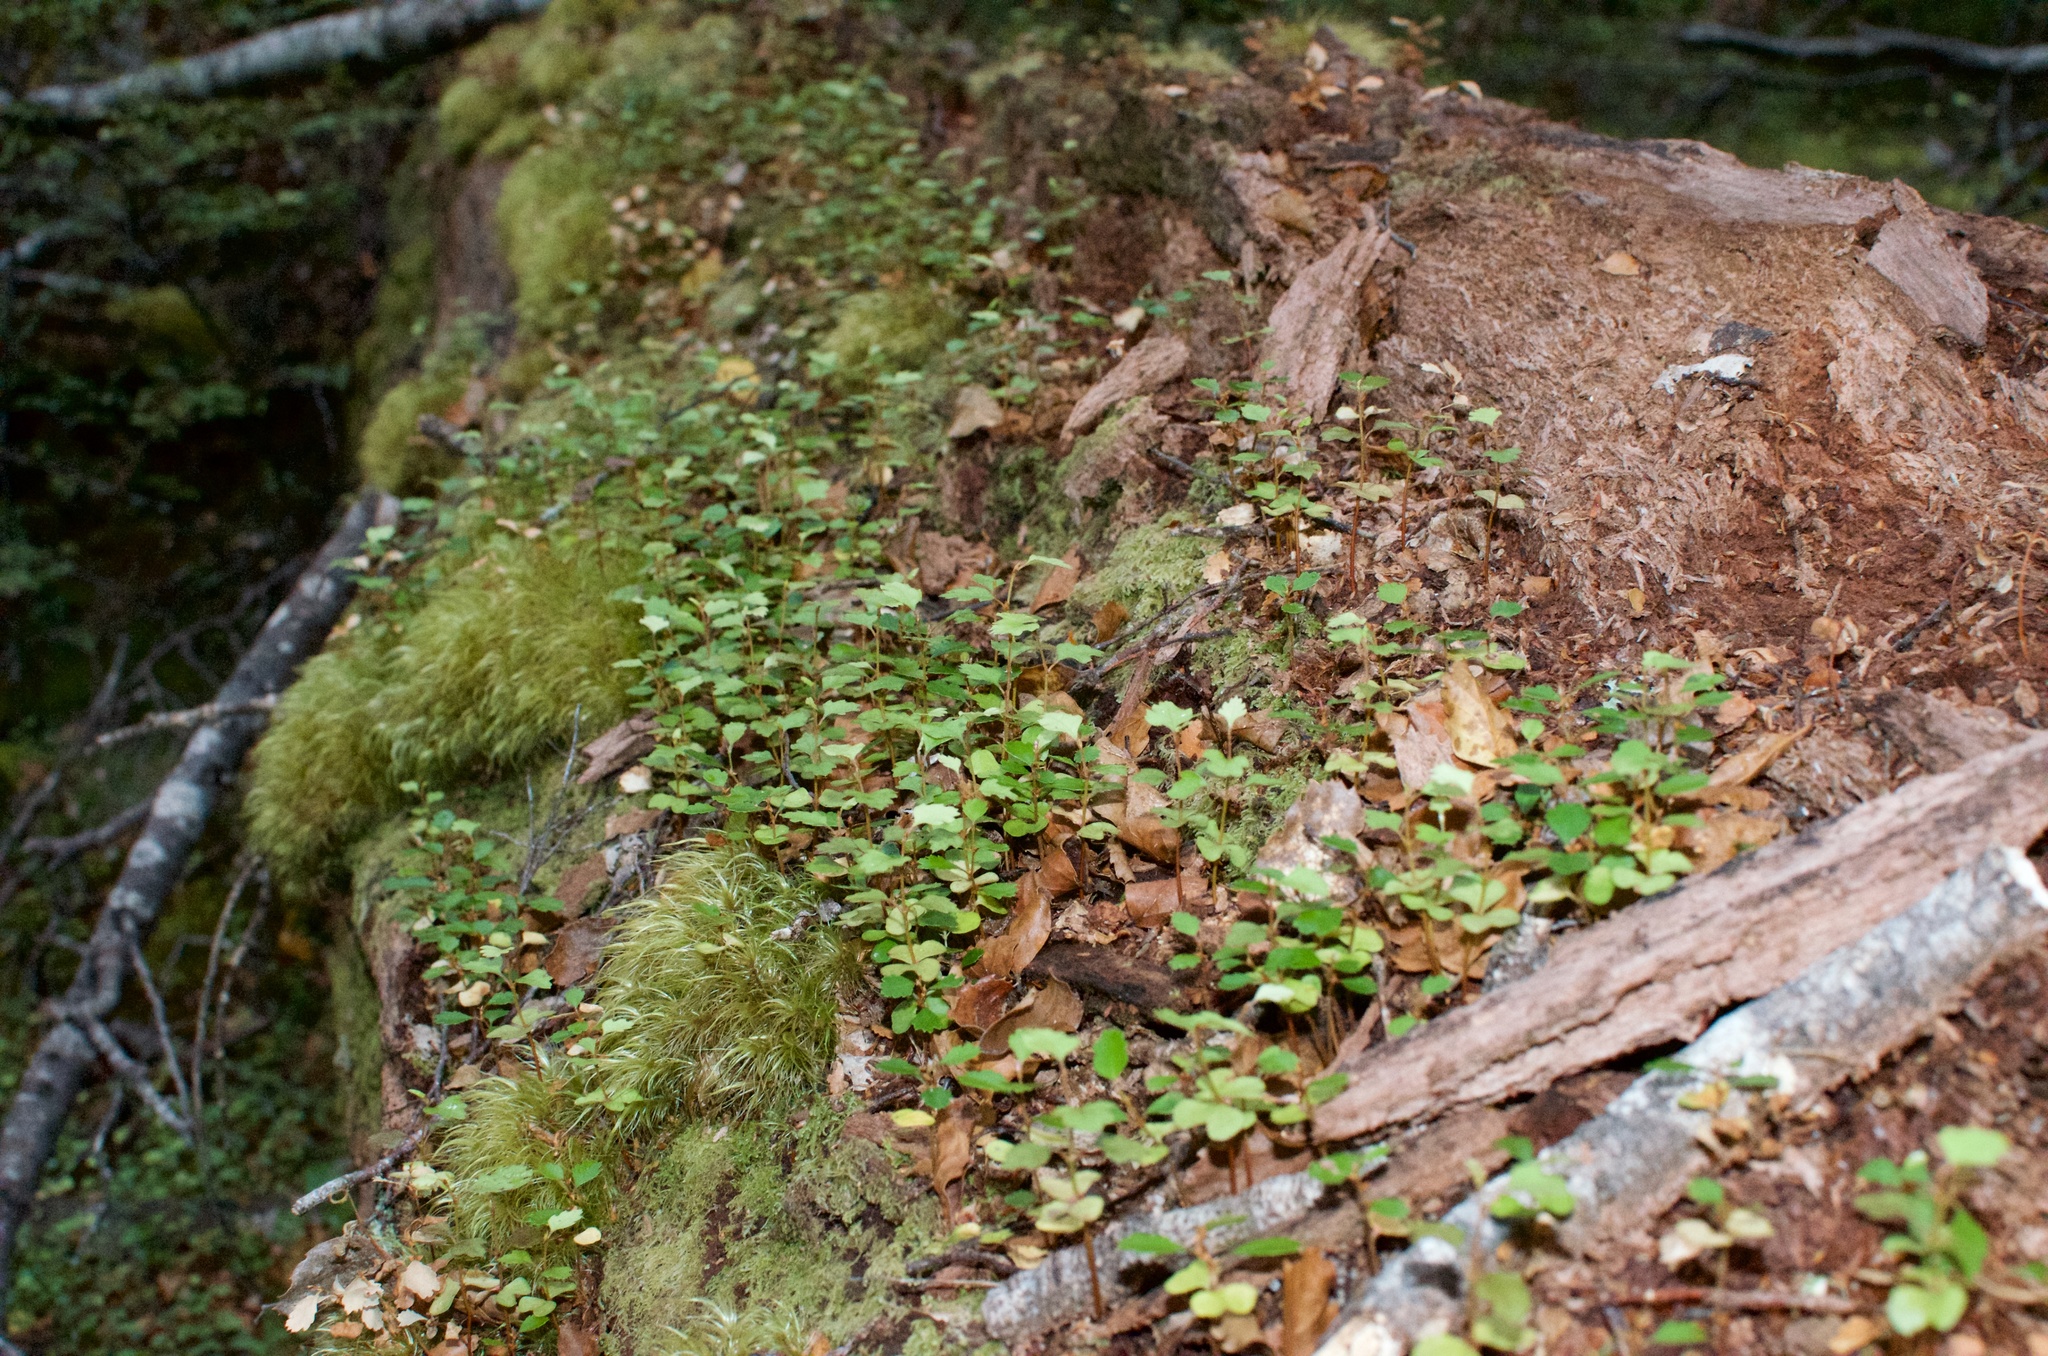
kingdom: Plantae
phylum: Tracheophyta
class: Magnoliopsida
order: Fagales
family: Nothofagaceae
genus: Nothofagus
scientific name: Nothofagus fusca
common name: Red beech
